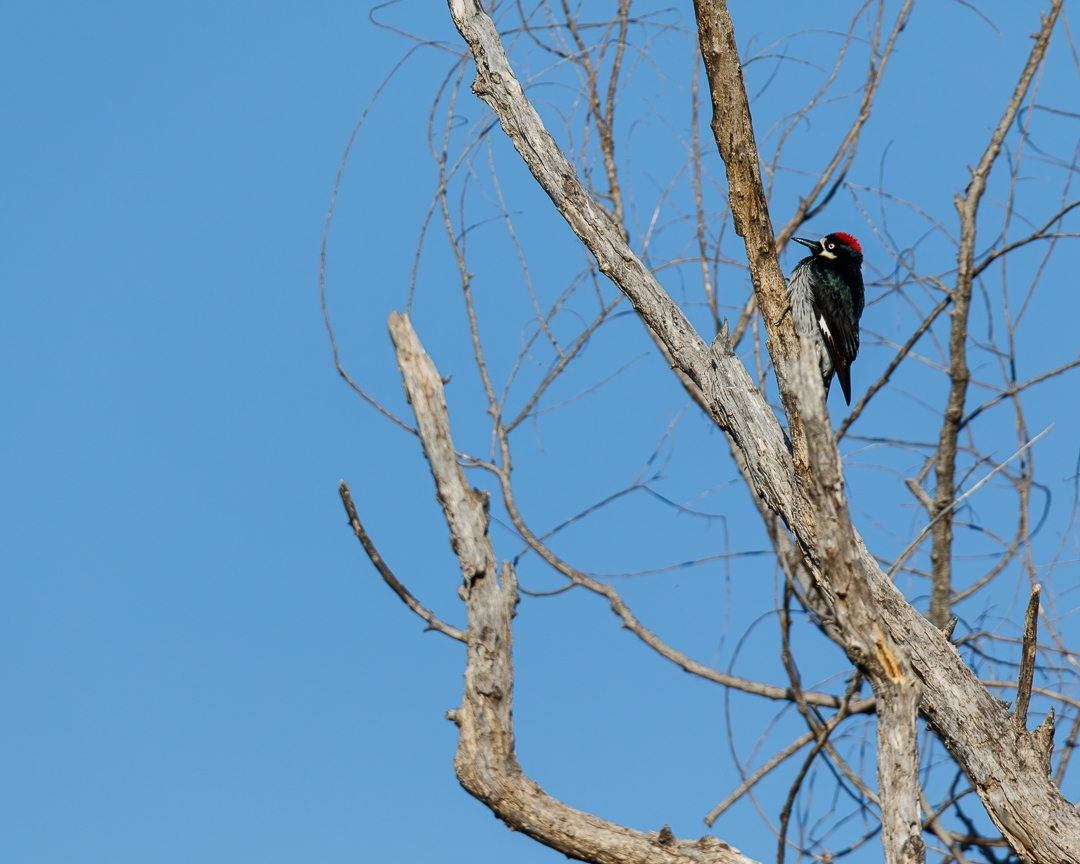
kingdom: Animalia
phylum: Chordata
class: Aves
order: Piciformes
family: Picidae
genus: Melanerpes
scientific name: Melanerpes formicivorus
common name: Acorn woodpecker
